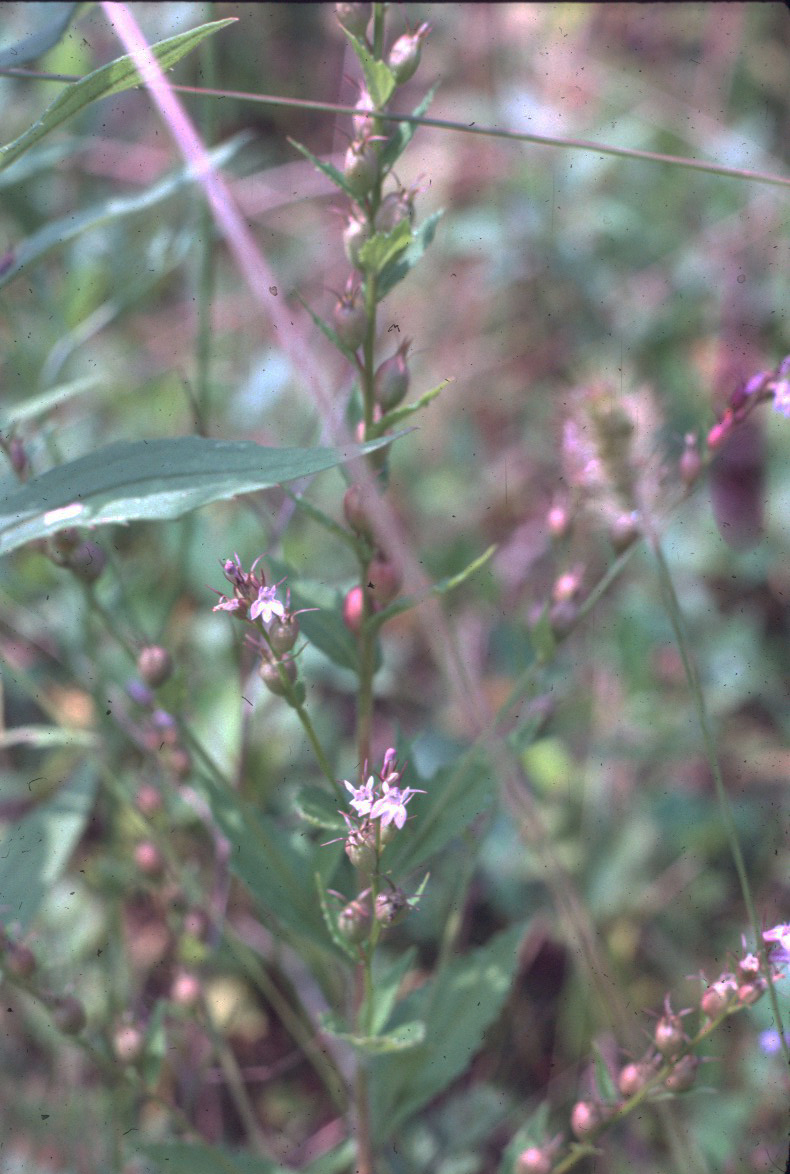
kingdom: Plantae
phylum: Tracheophyta
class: Magnoliopsida
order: Asterales
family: Campanulaceae
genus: Lobelia
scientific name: Lobelia inflata
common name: Indian tobacco
